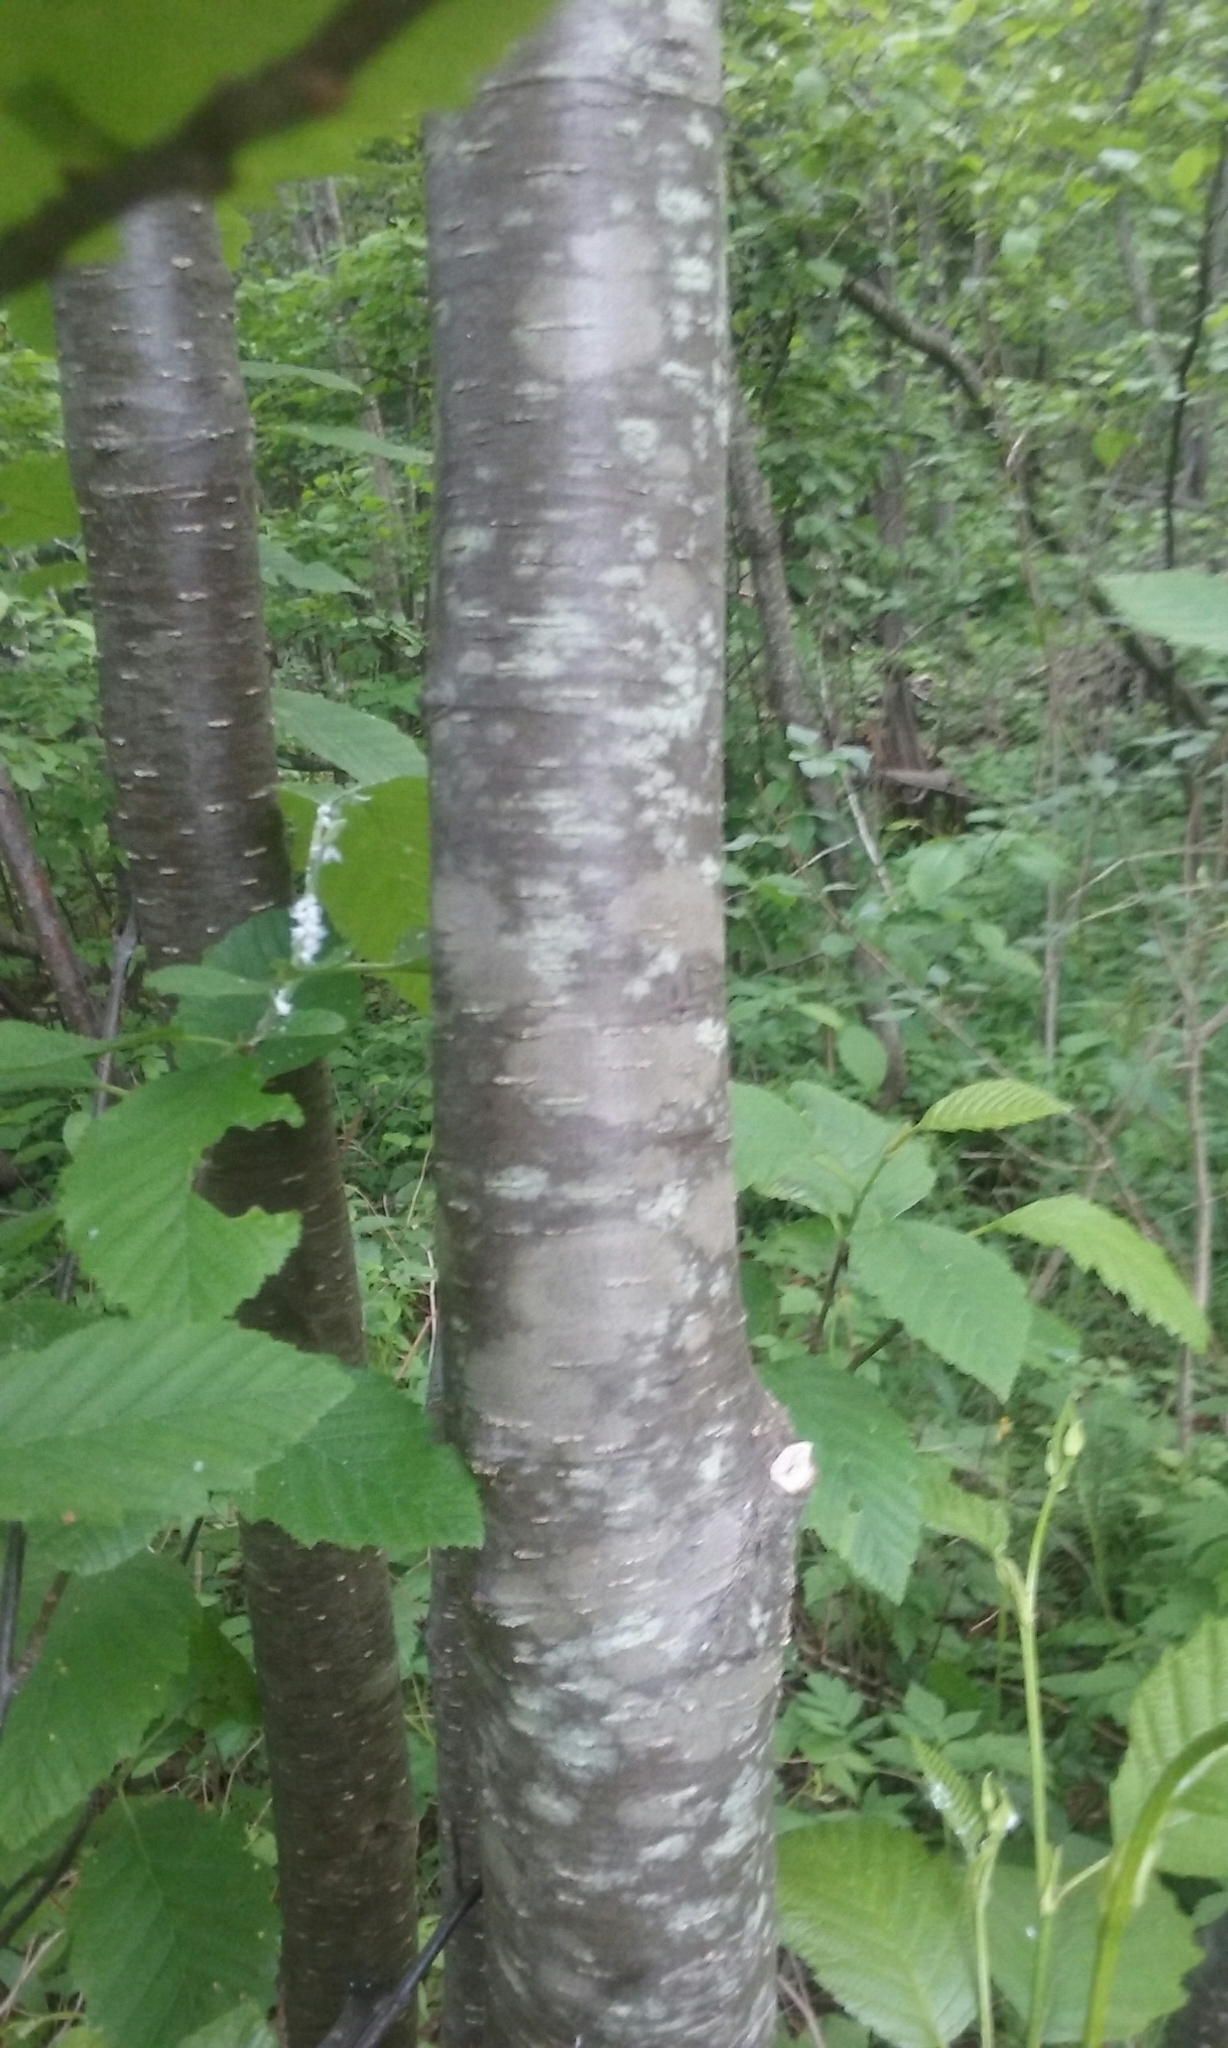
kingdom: Plantae
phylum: Tracheophyta
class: Magnoliopsida
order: Fagales
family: Betulaceae
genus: Alnus
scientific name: Alnus incana
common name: Grey alder
